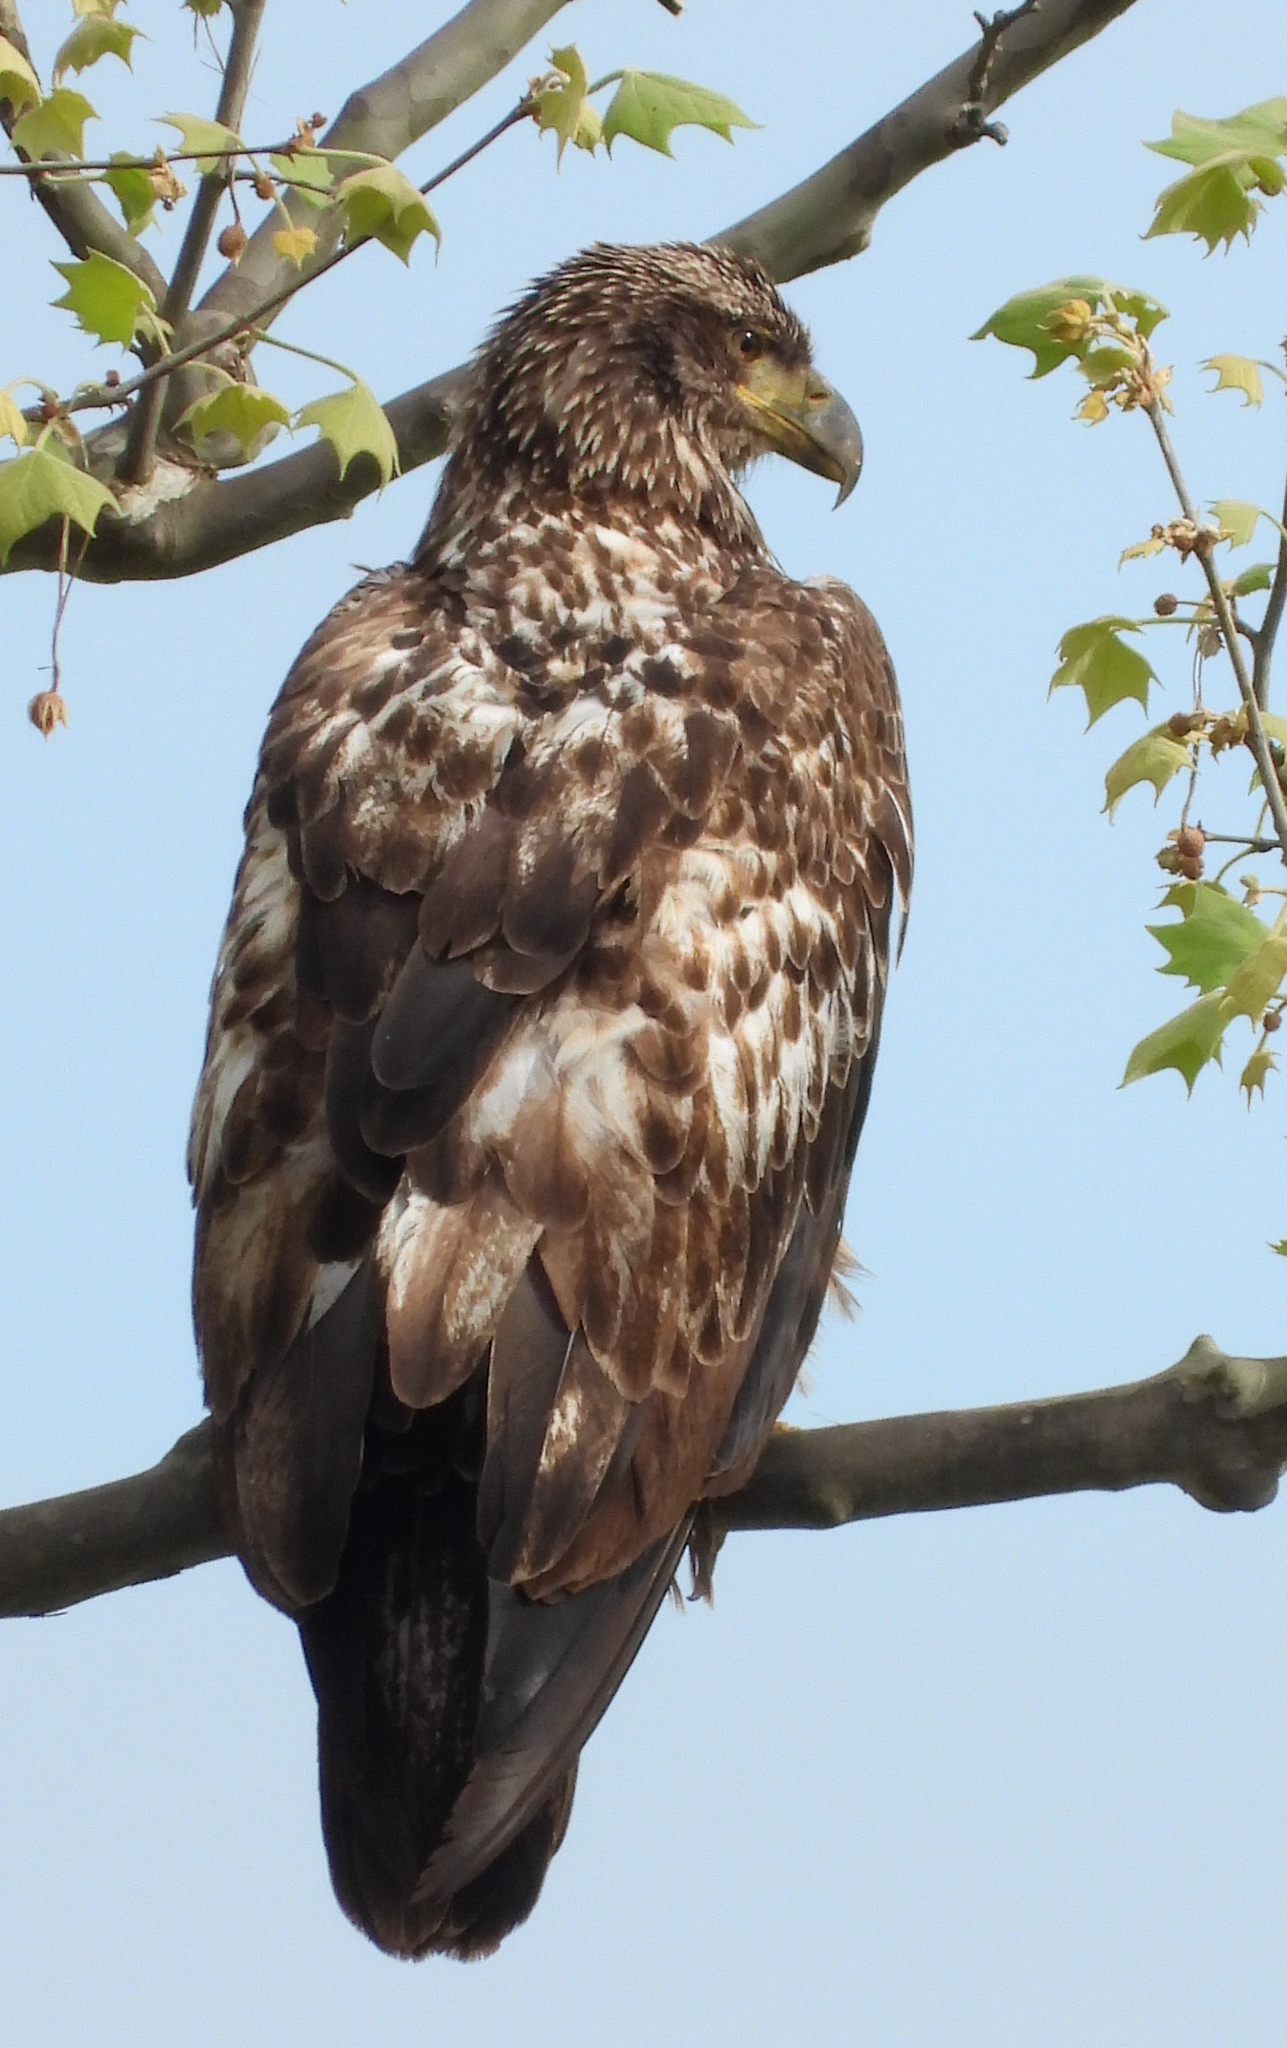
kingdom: Animalia
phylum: Chordata
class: Aves
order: Accipitriformes
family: Accipitridae
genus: Haliaeetus
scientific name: Haliaeetus leucocephalus
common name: Bald eagle
